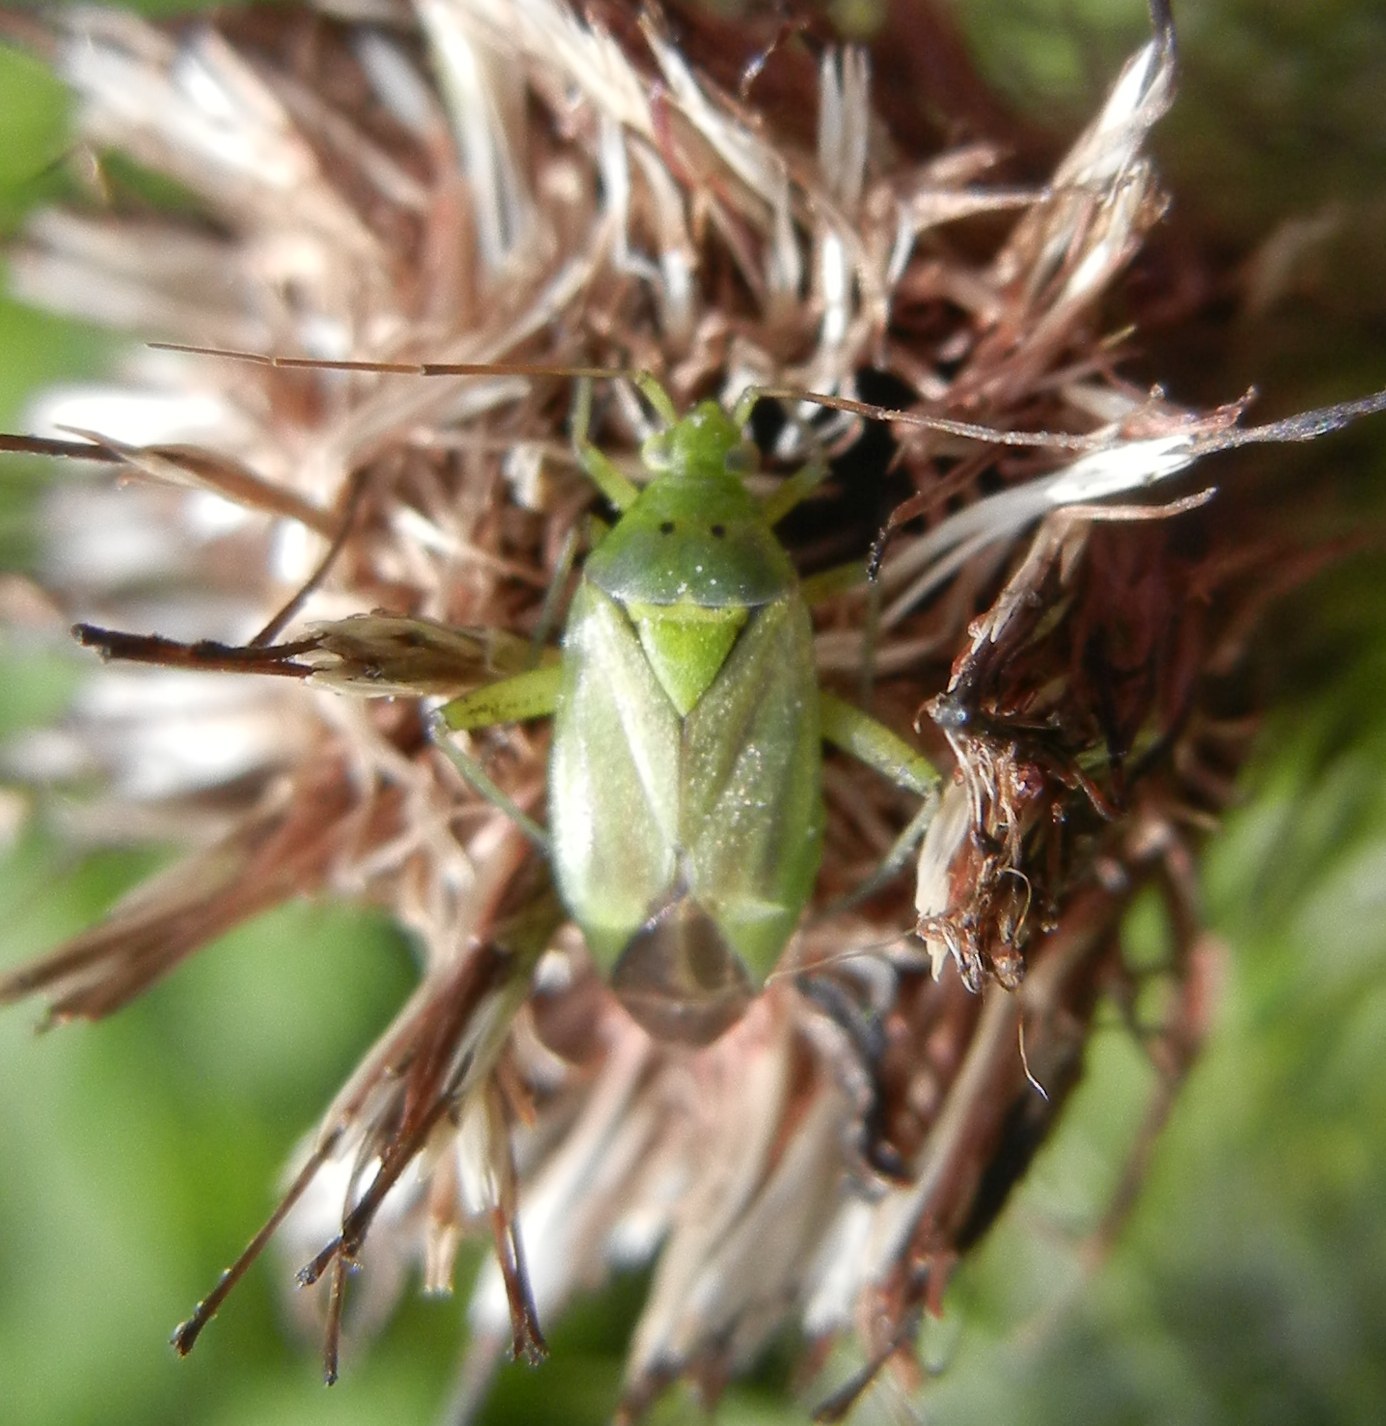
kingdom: Animalia
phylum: Arthropoda
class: Insecta
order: Hemiptera
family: Miridae
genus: Closterotomus
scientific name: Closterotomus norvegicus
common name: Plant bug
